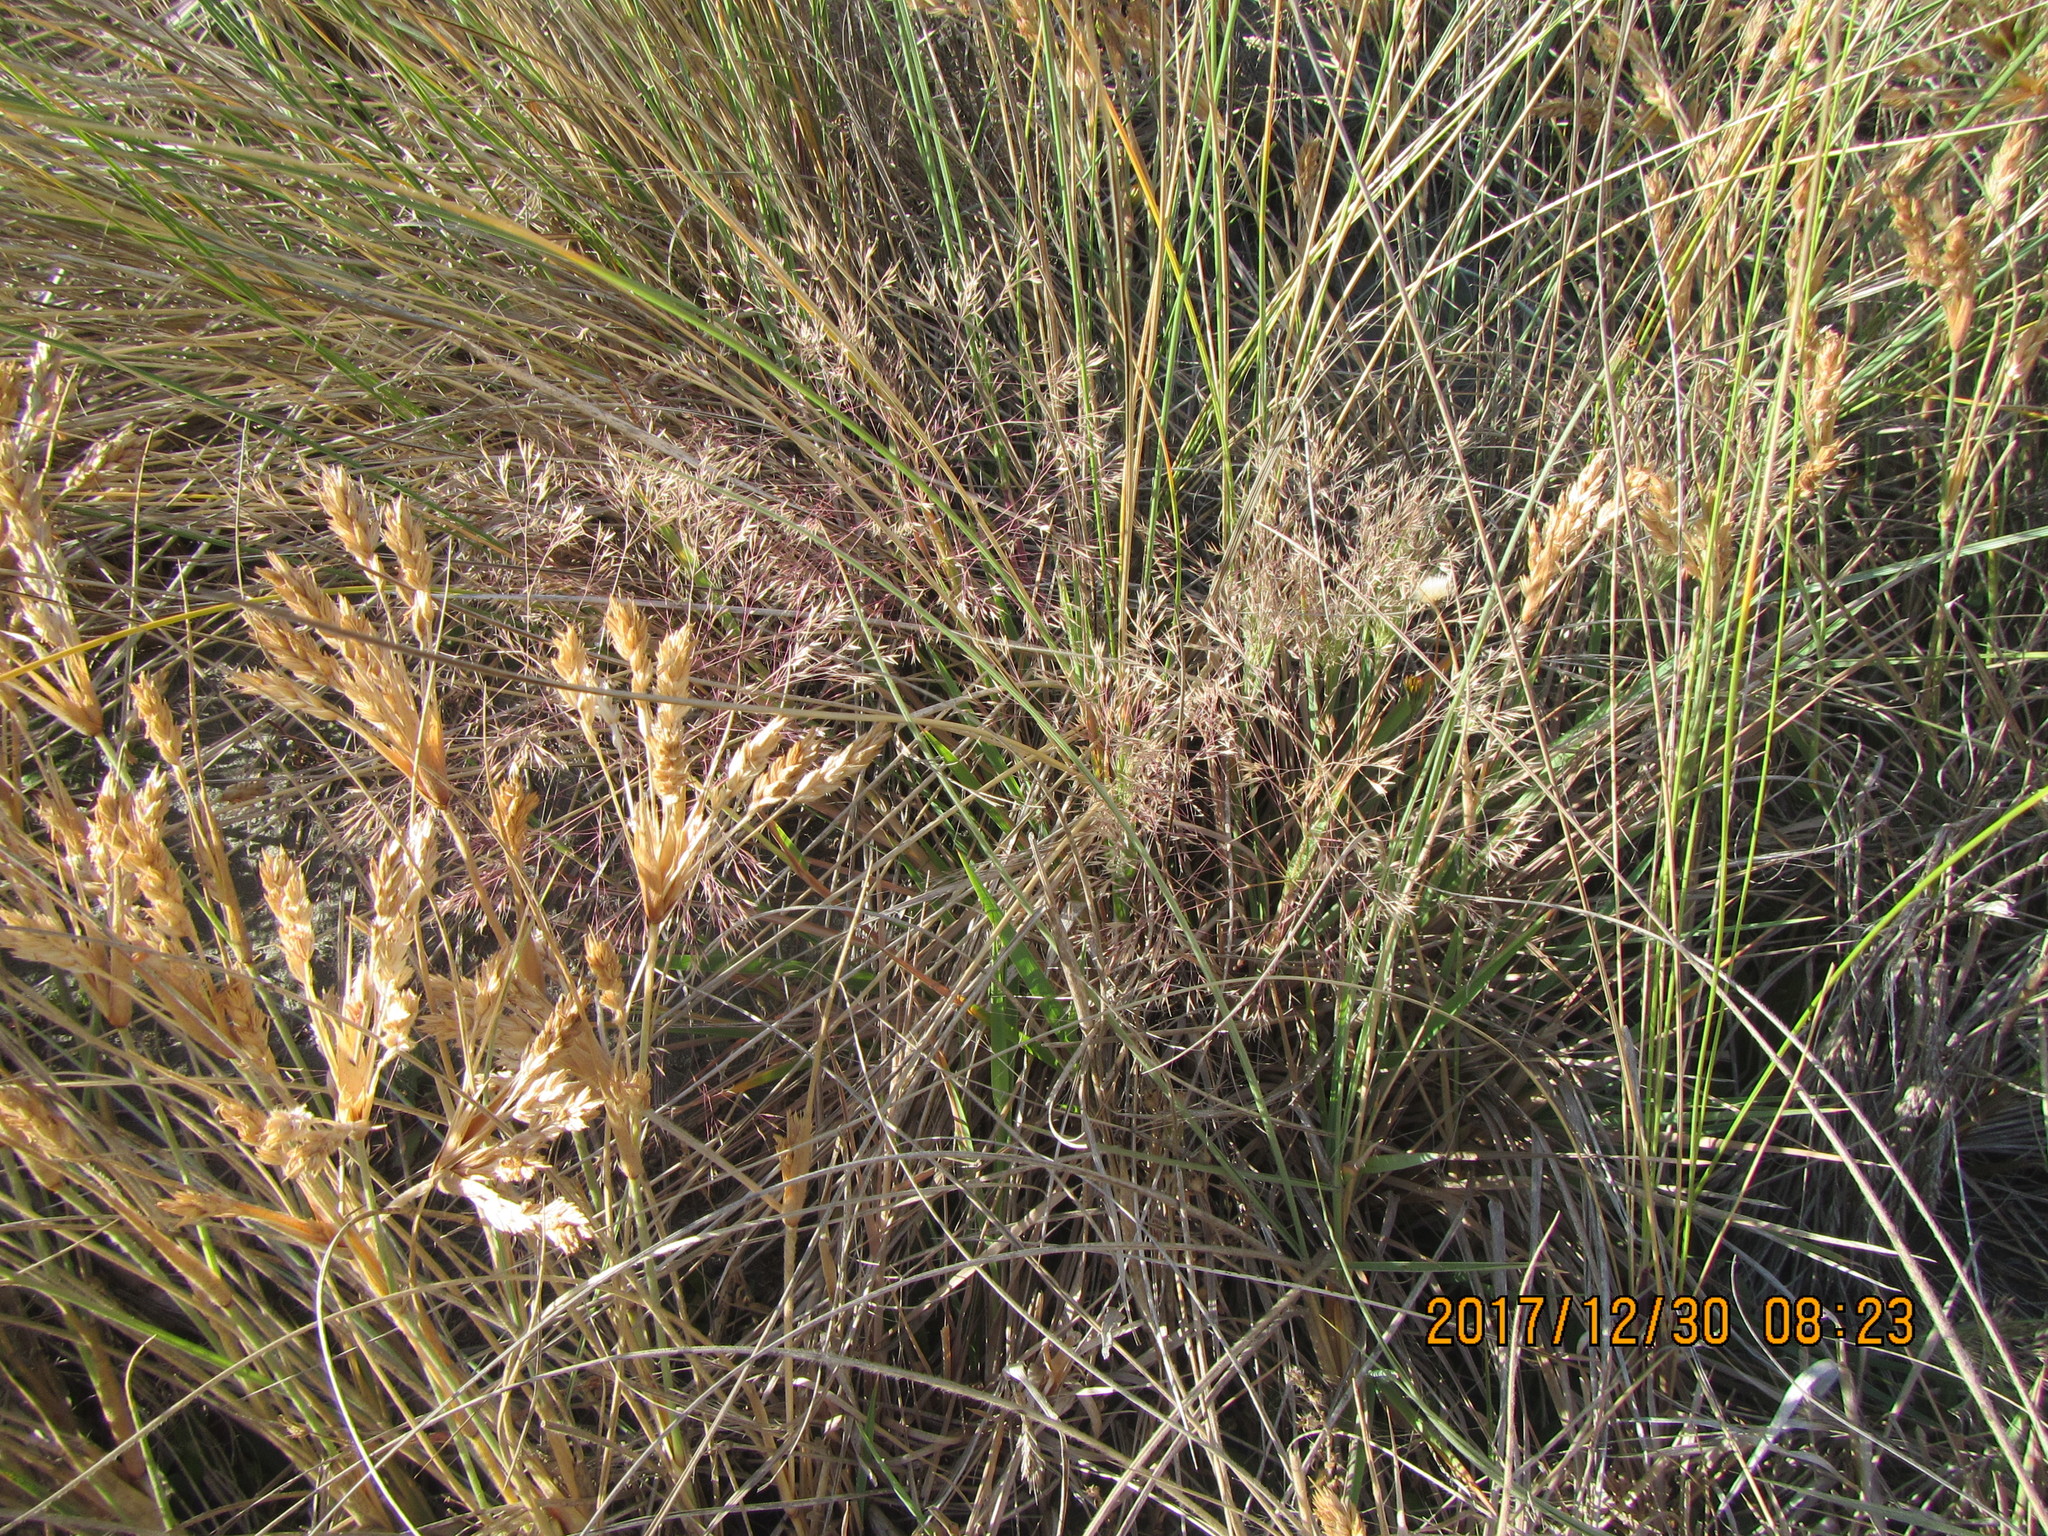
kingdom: Plantae
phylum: Tracheophyta
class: Liliopsida
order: Poales
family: Poaceae
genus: Lachnagrostis
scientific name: Lachnagrostis billardierei
